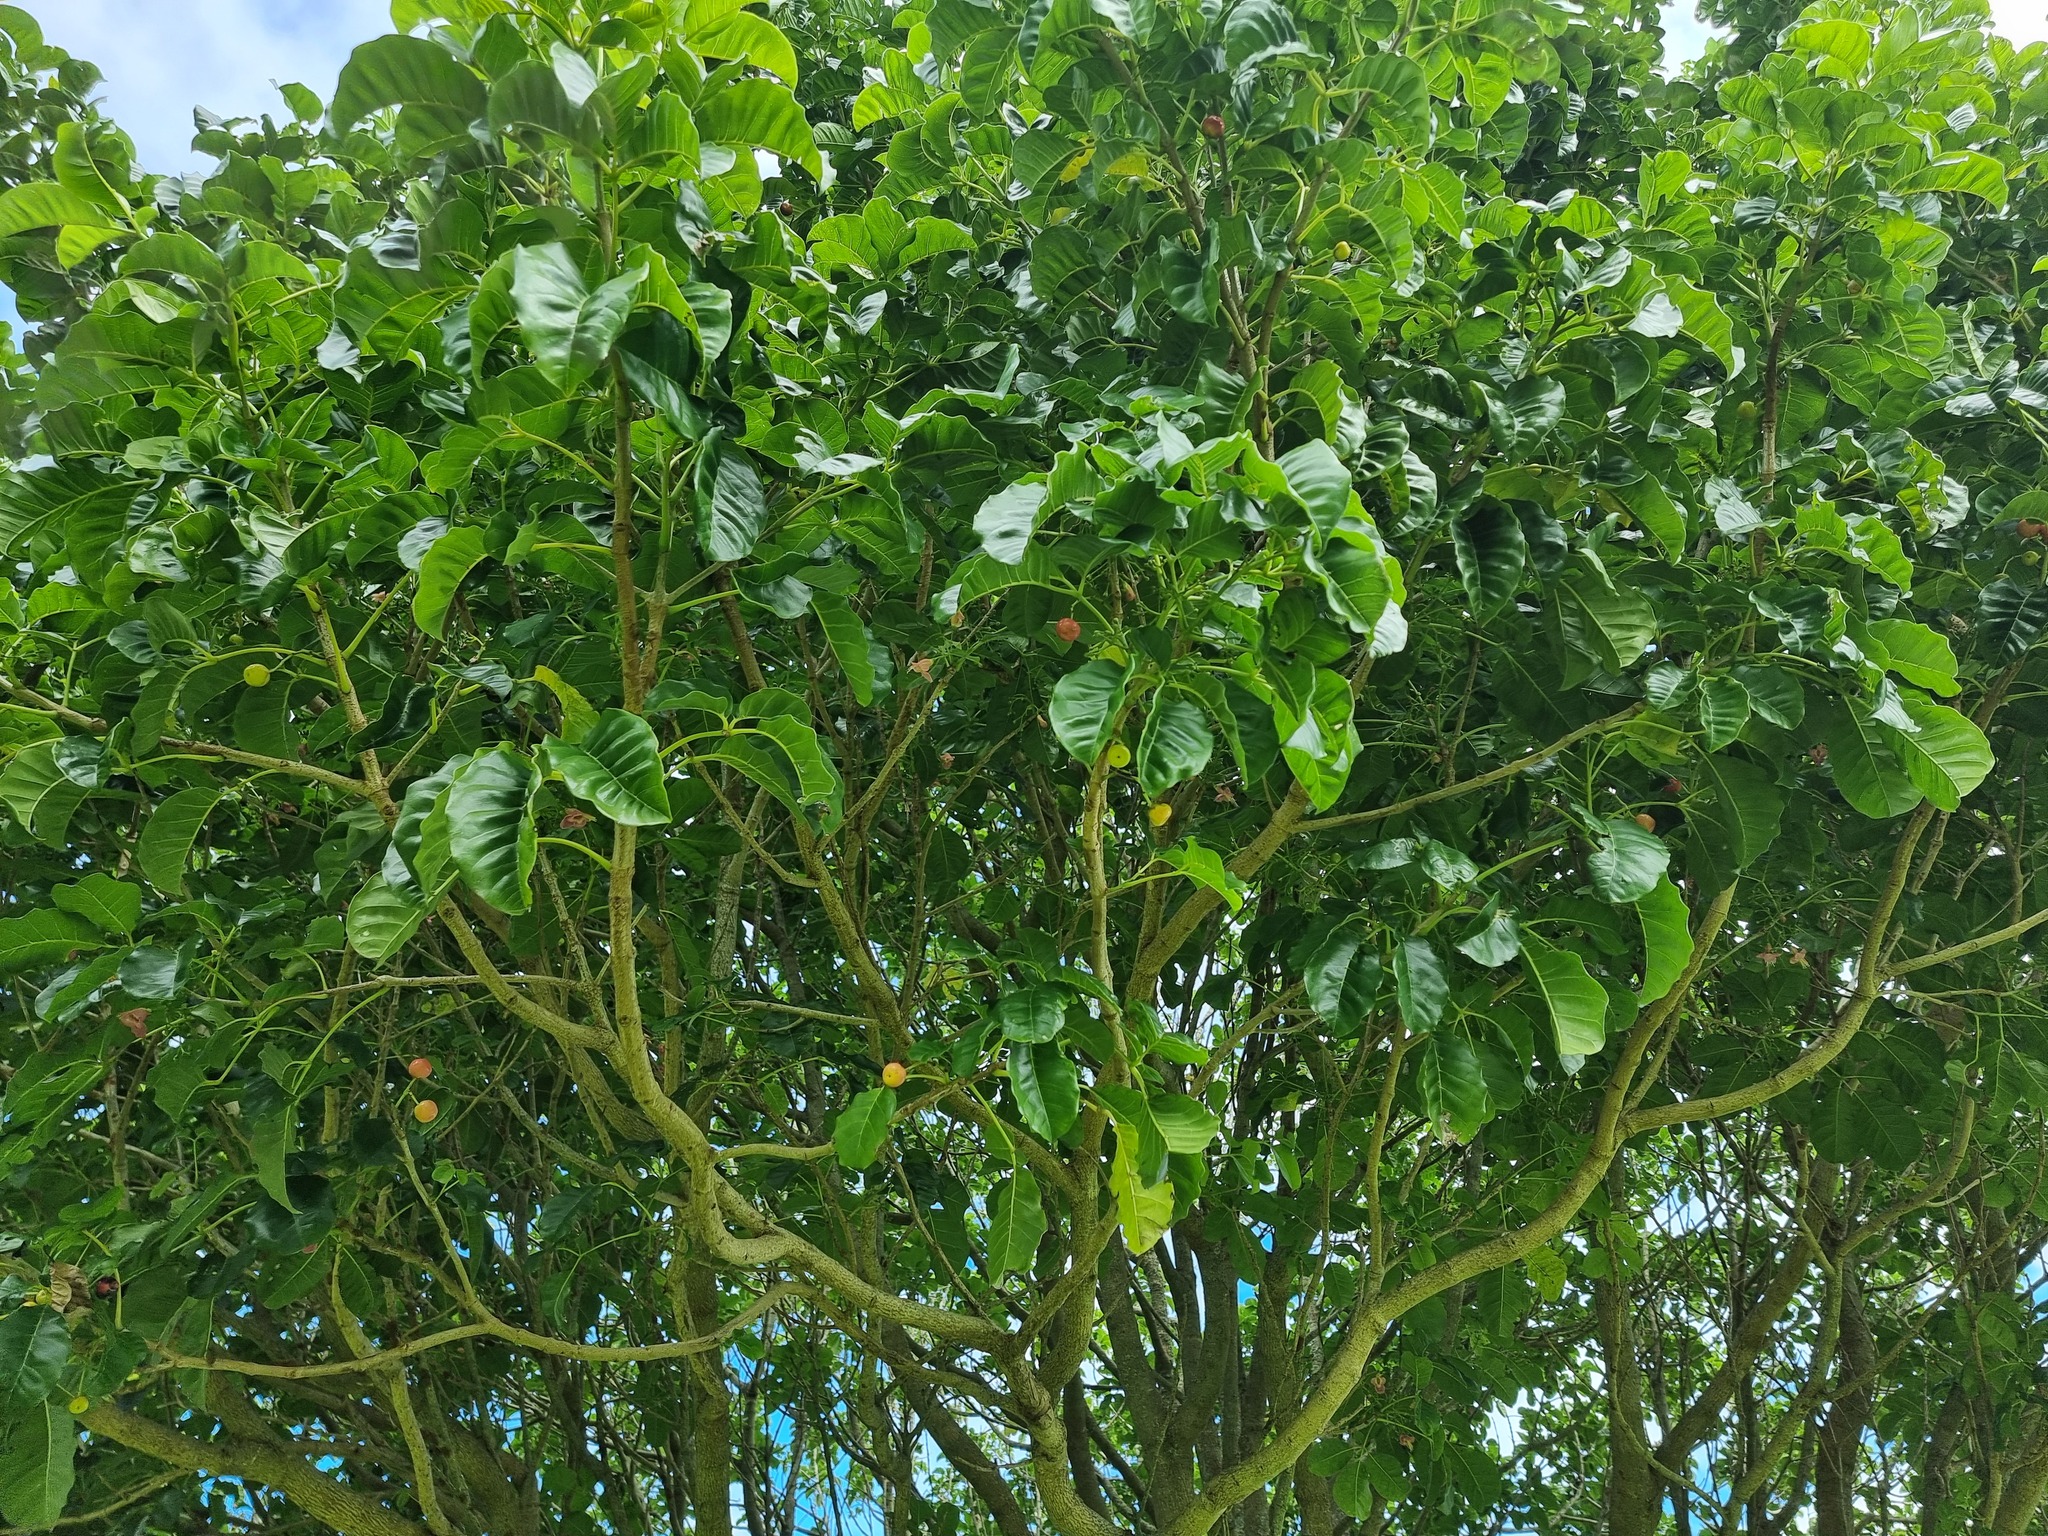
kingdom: Plantae
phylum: Tracheophyta
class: Magnoliopsida
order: Lamiales
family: Lamiaceae
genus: Vitex
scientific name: Vitex lucens
